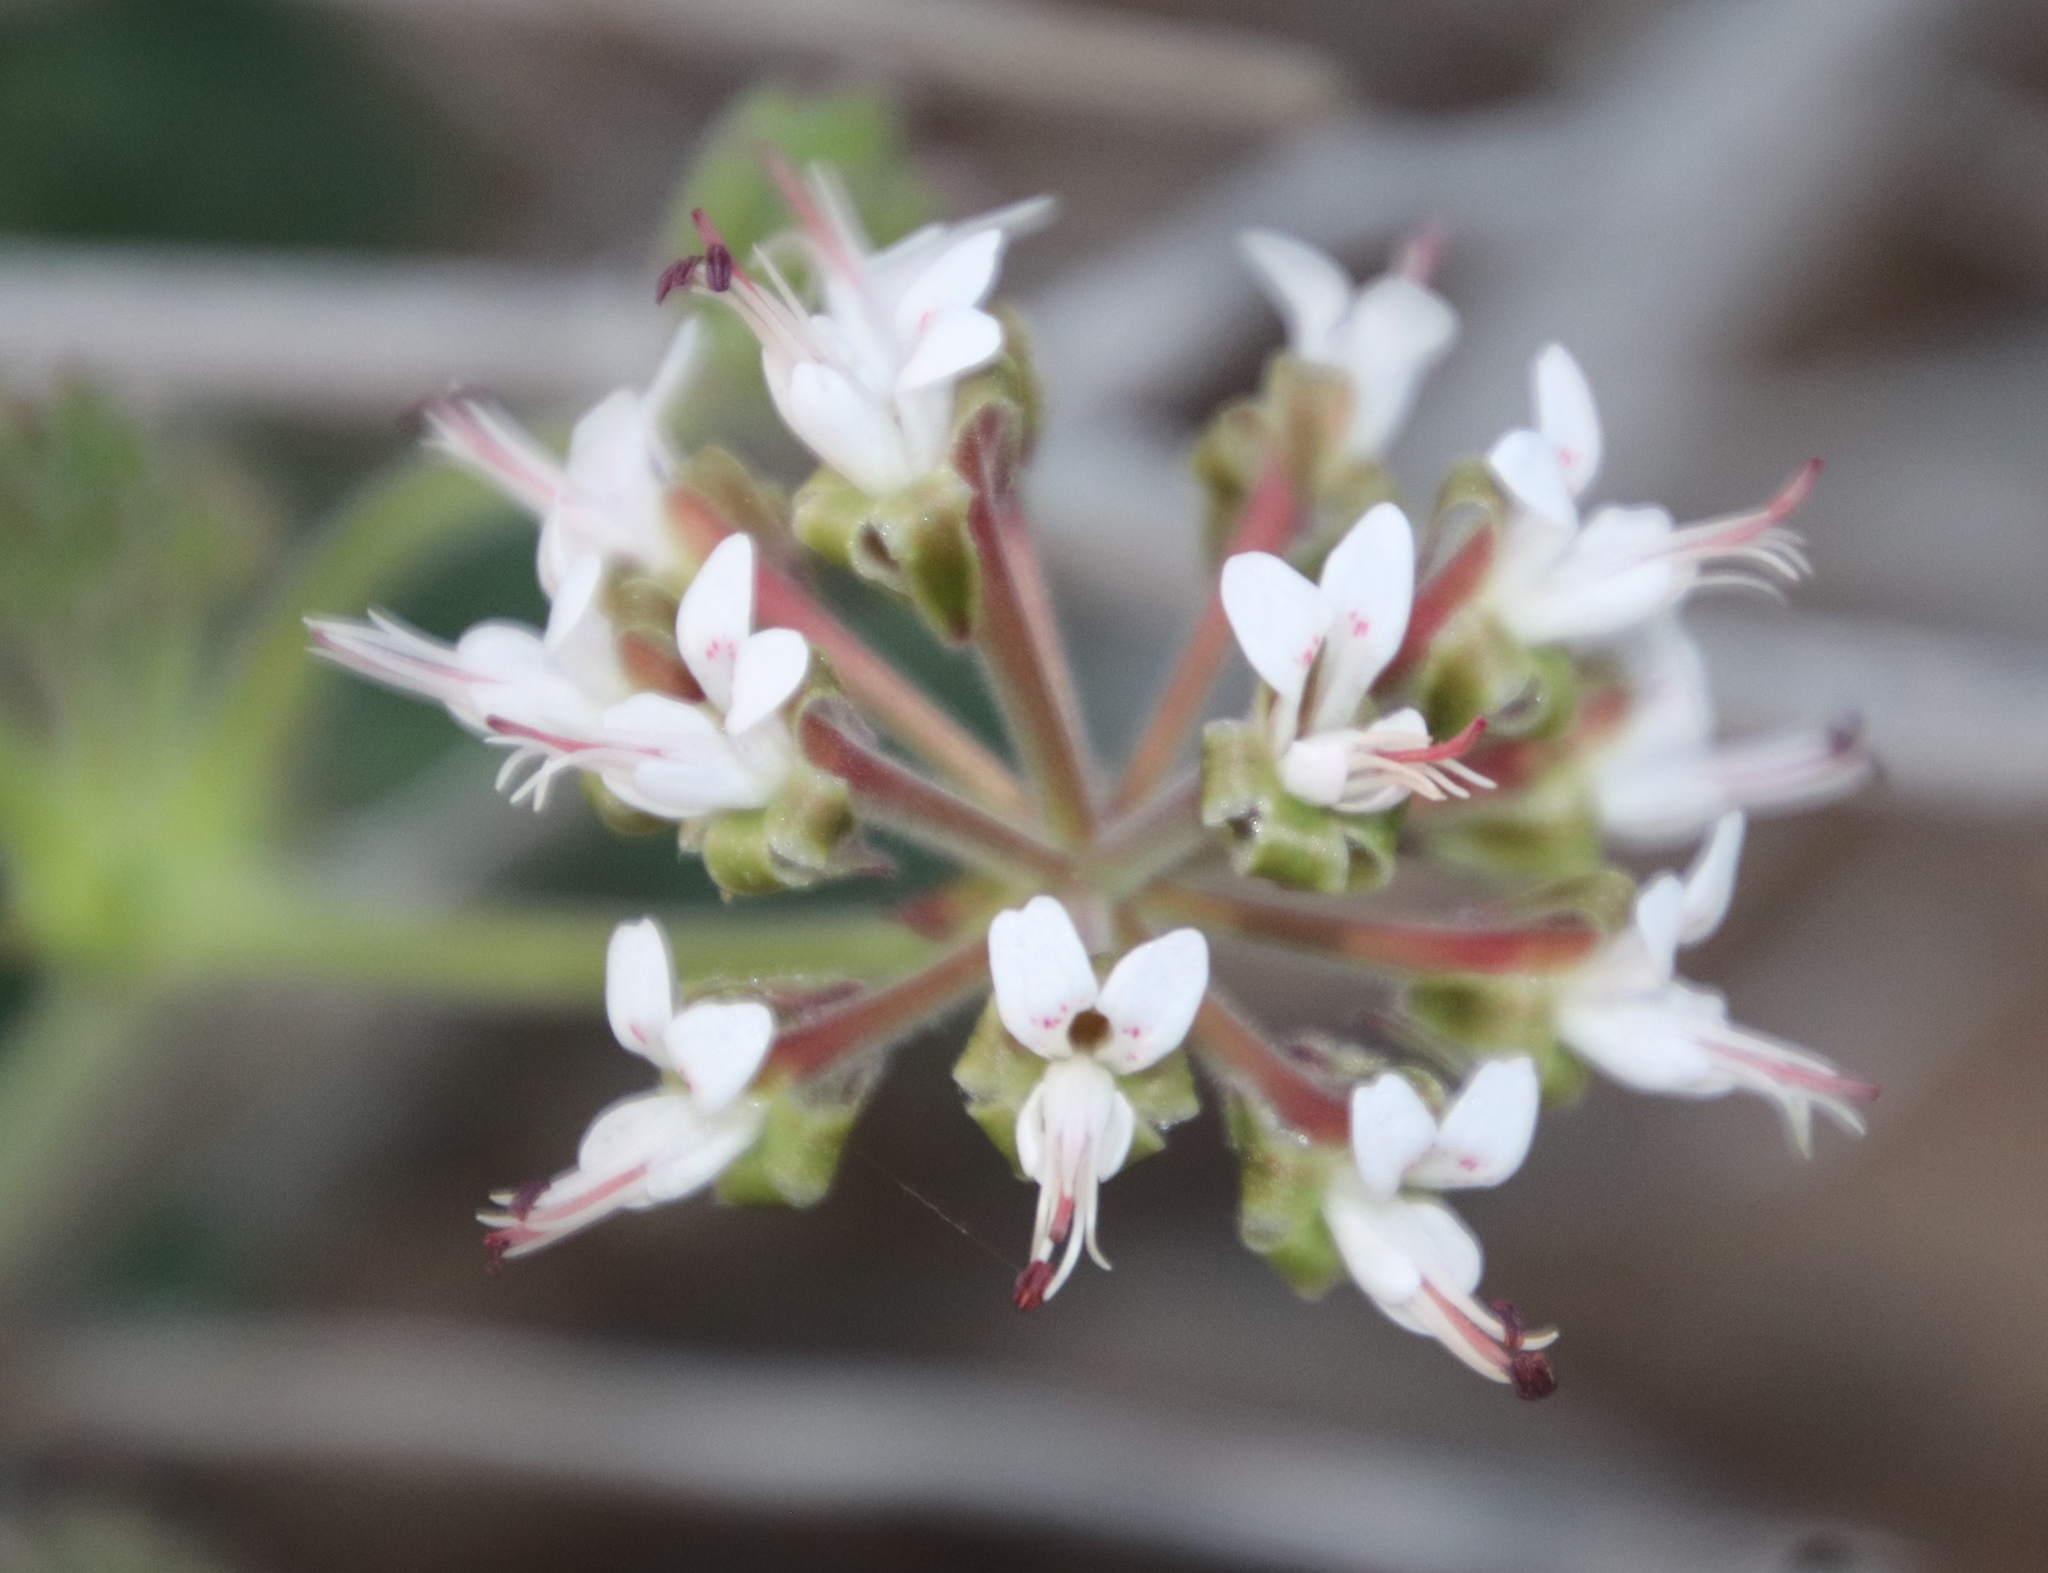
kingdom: Plantae
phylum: Tracheophyta
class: Magnoliopsida
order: Geraniales
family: Geraniaceae
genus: Pelargonium
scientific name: Pelargonium parvipetalum
